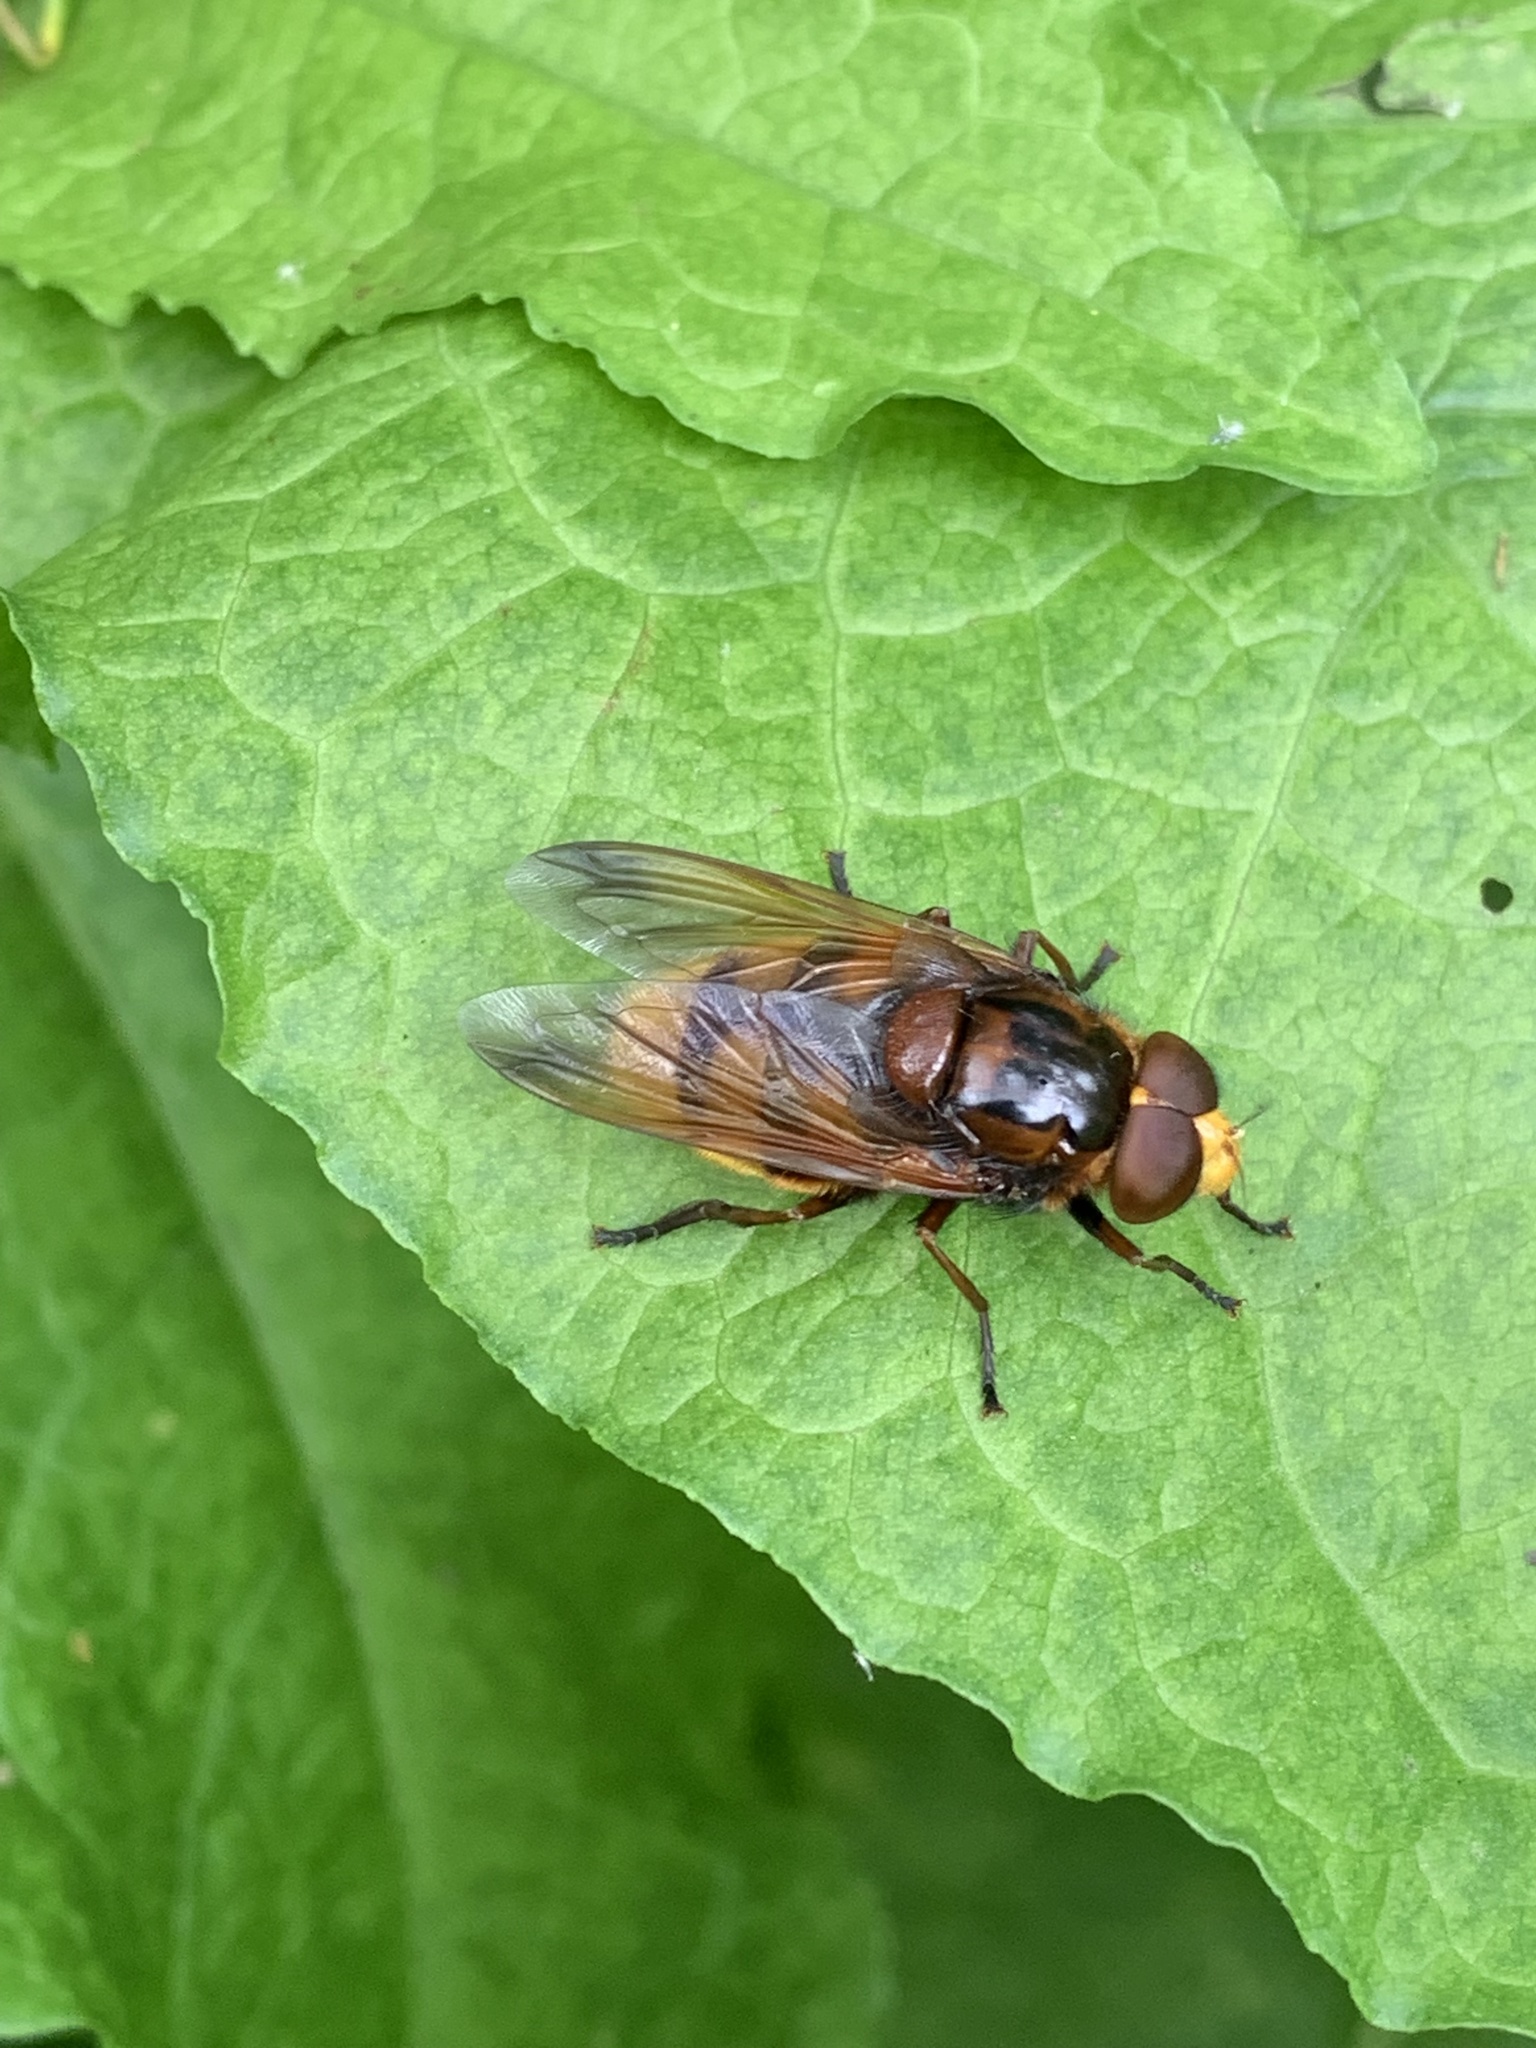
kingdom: Animalia
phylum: Arthropoda
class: Insecta
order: Diptera
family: Syrphidae
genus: Volucella
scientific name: Volucella zonaria
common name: Hornet hoverfly
